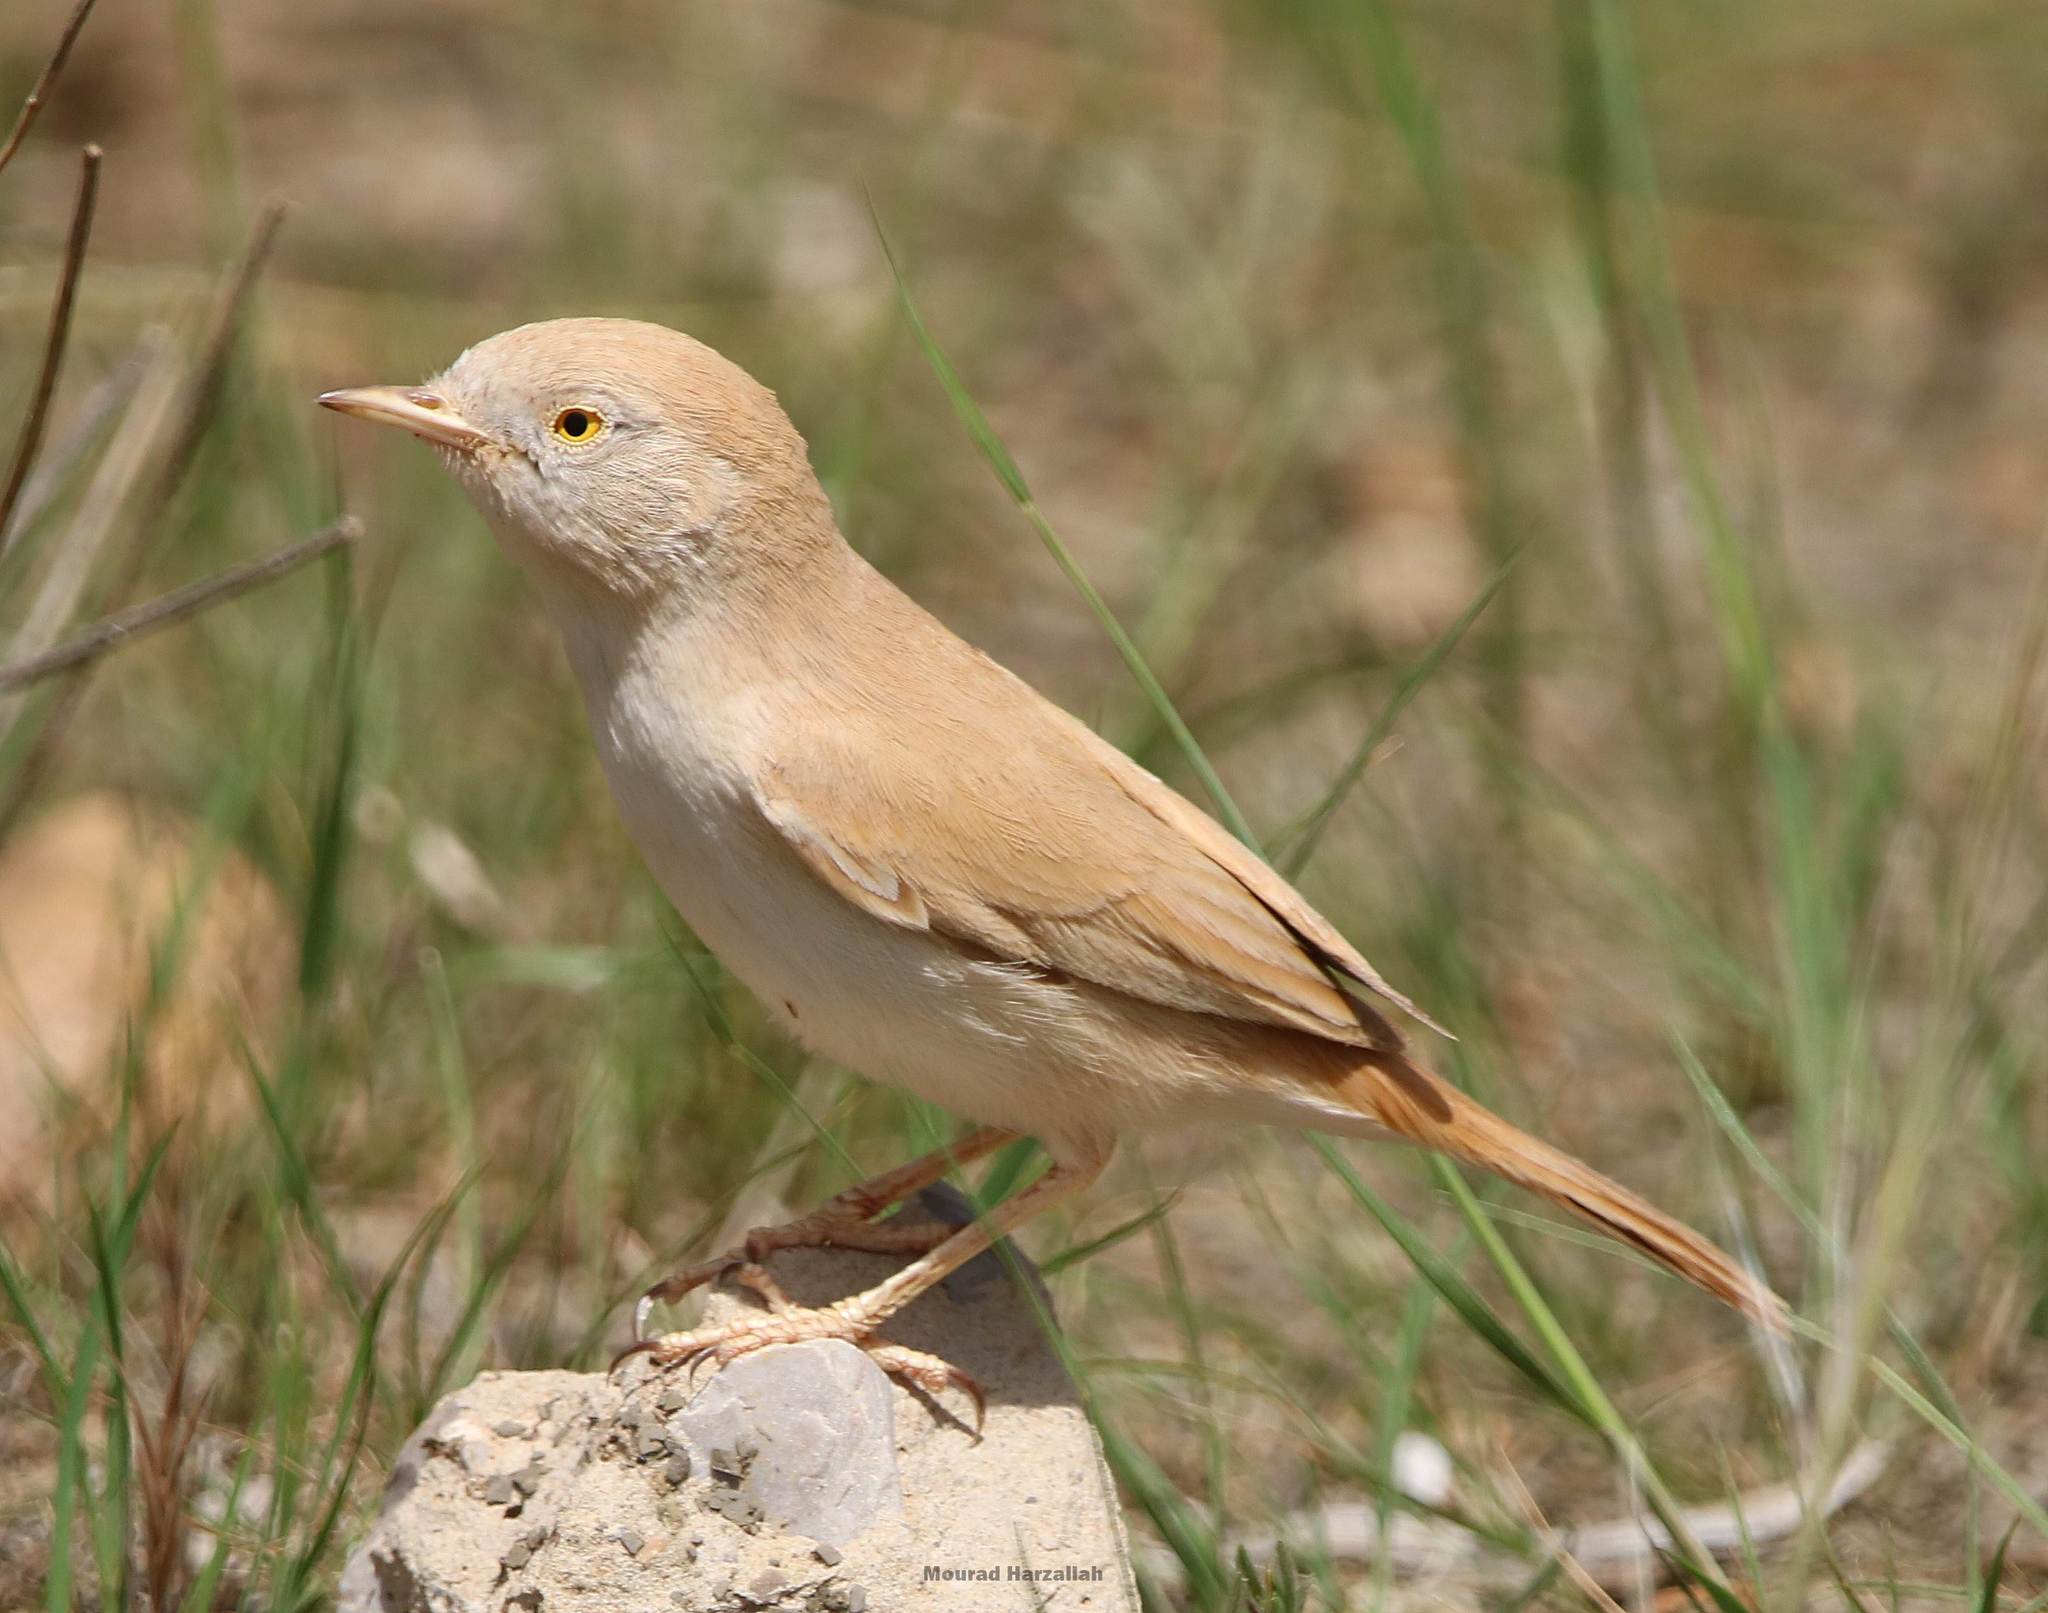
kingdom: Animalia
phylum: Chordata
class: Aves
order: Passeriformes
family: Sylviidae
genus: Sylvia
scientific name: Sylvia deserti
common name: African desert warbler
